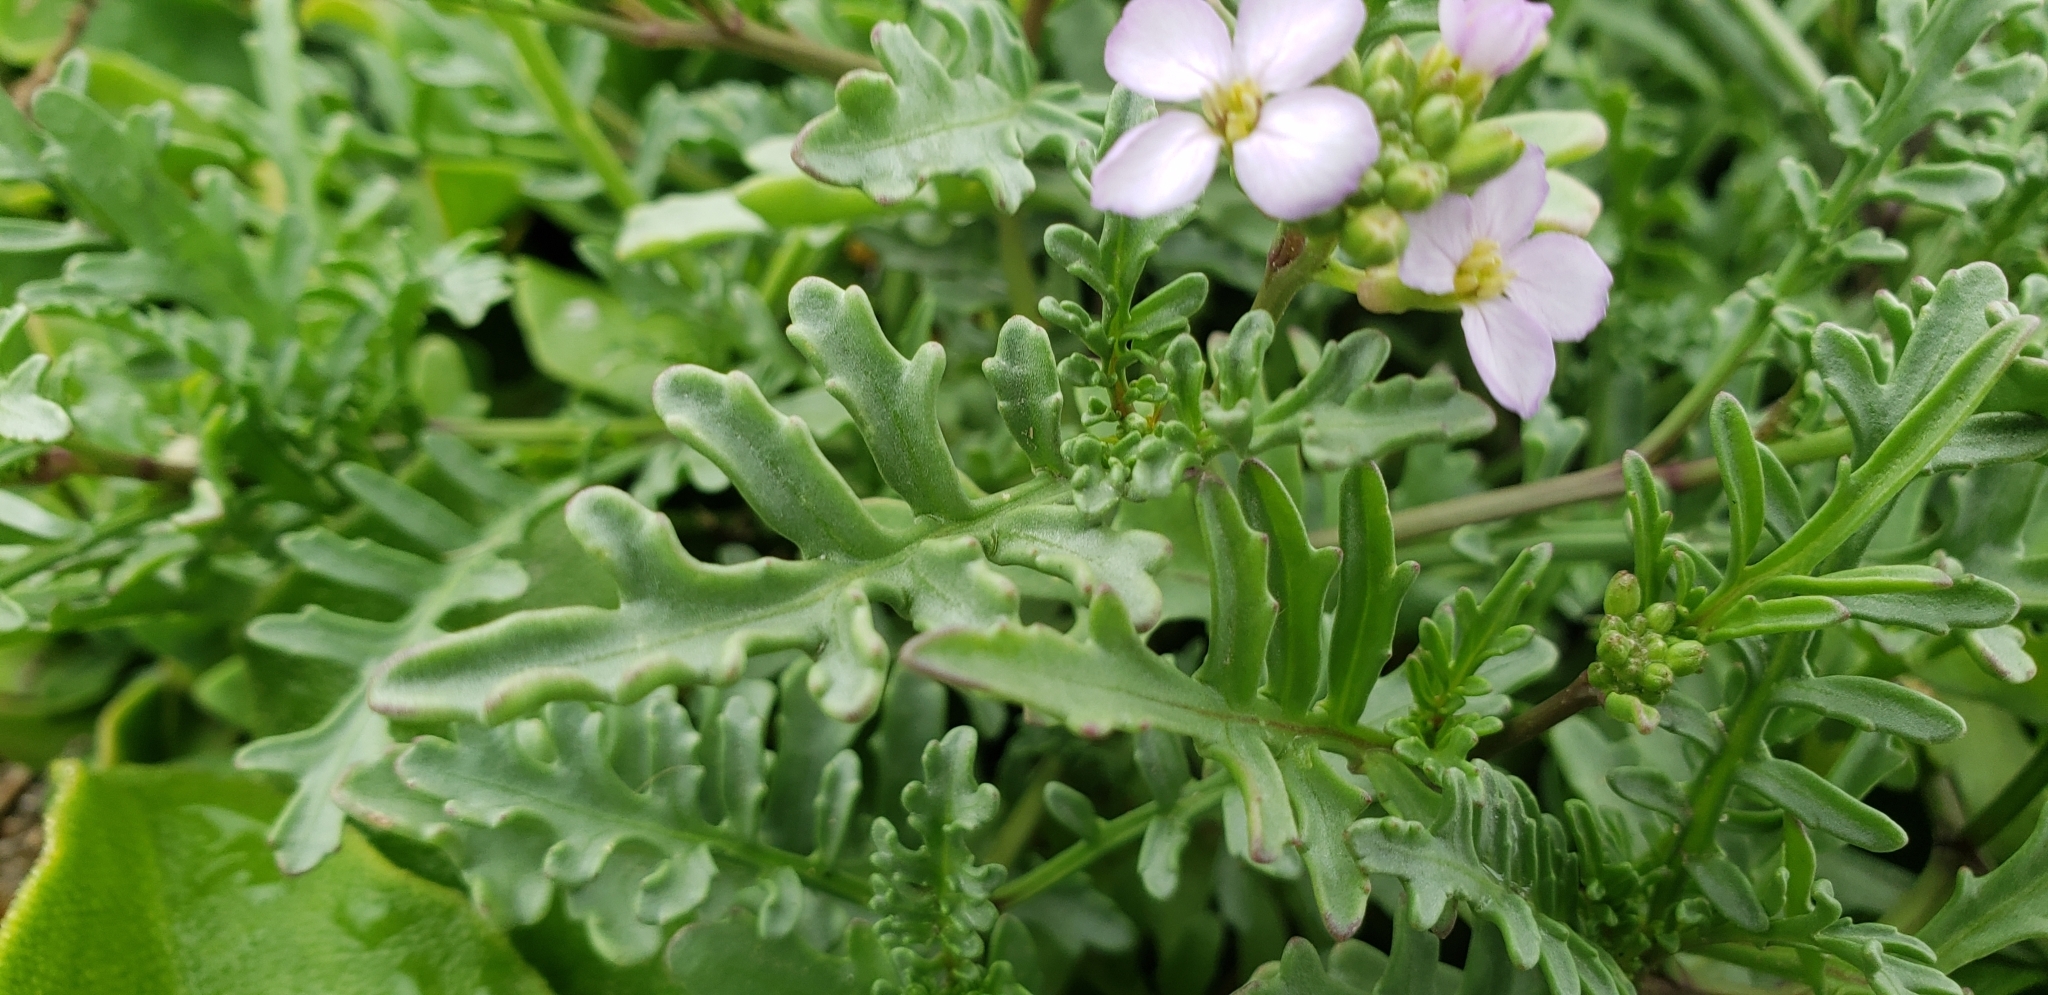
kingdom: Plantae
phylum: Tracheophyta
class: Magnoliopsida
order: Brassicales
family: Brassicaceae
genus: Cakile
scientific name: Cakile maritima
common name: Sea rocket
